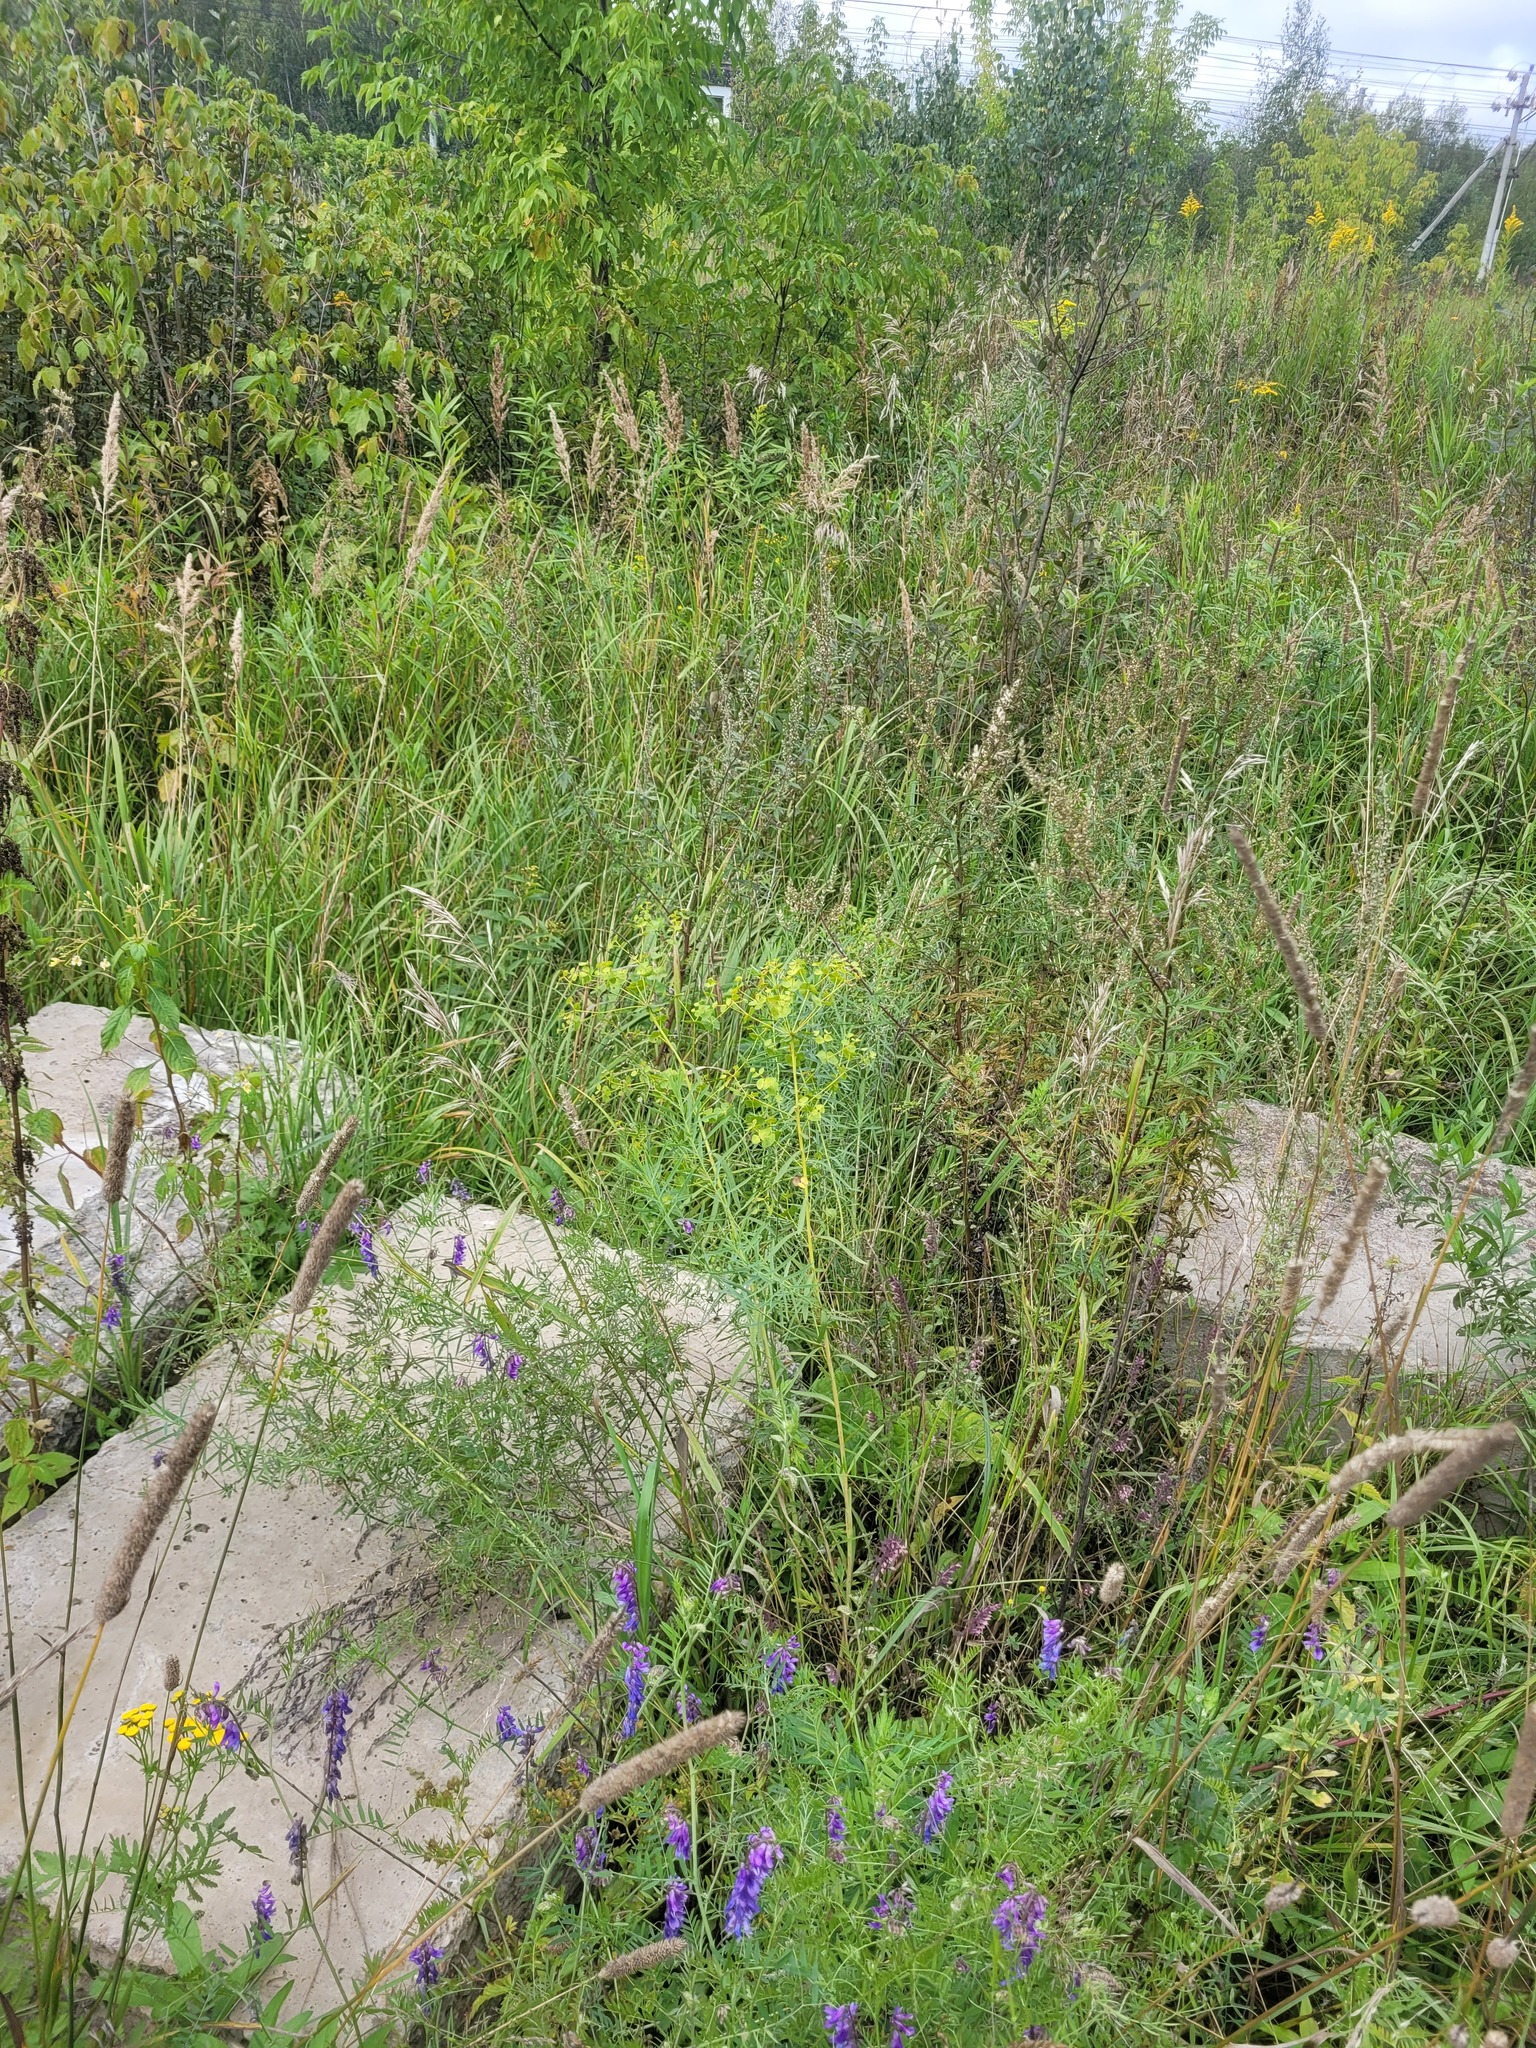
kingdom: Plantae
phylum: Tracheophyta
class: Magnoliopsida
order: Malpighiales
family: Euphorbiaceae
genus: Euphorbia
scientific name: Euphorbia virgata
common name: Leafy spurge
